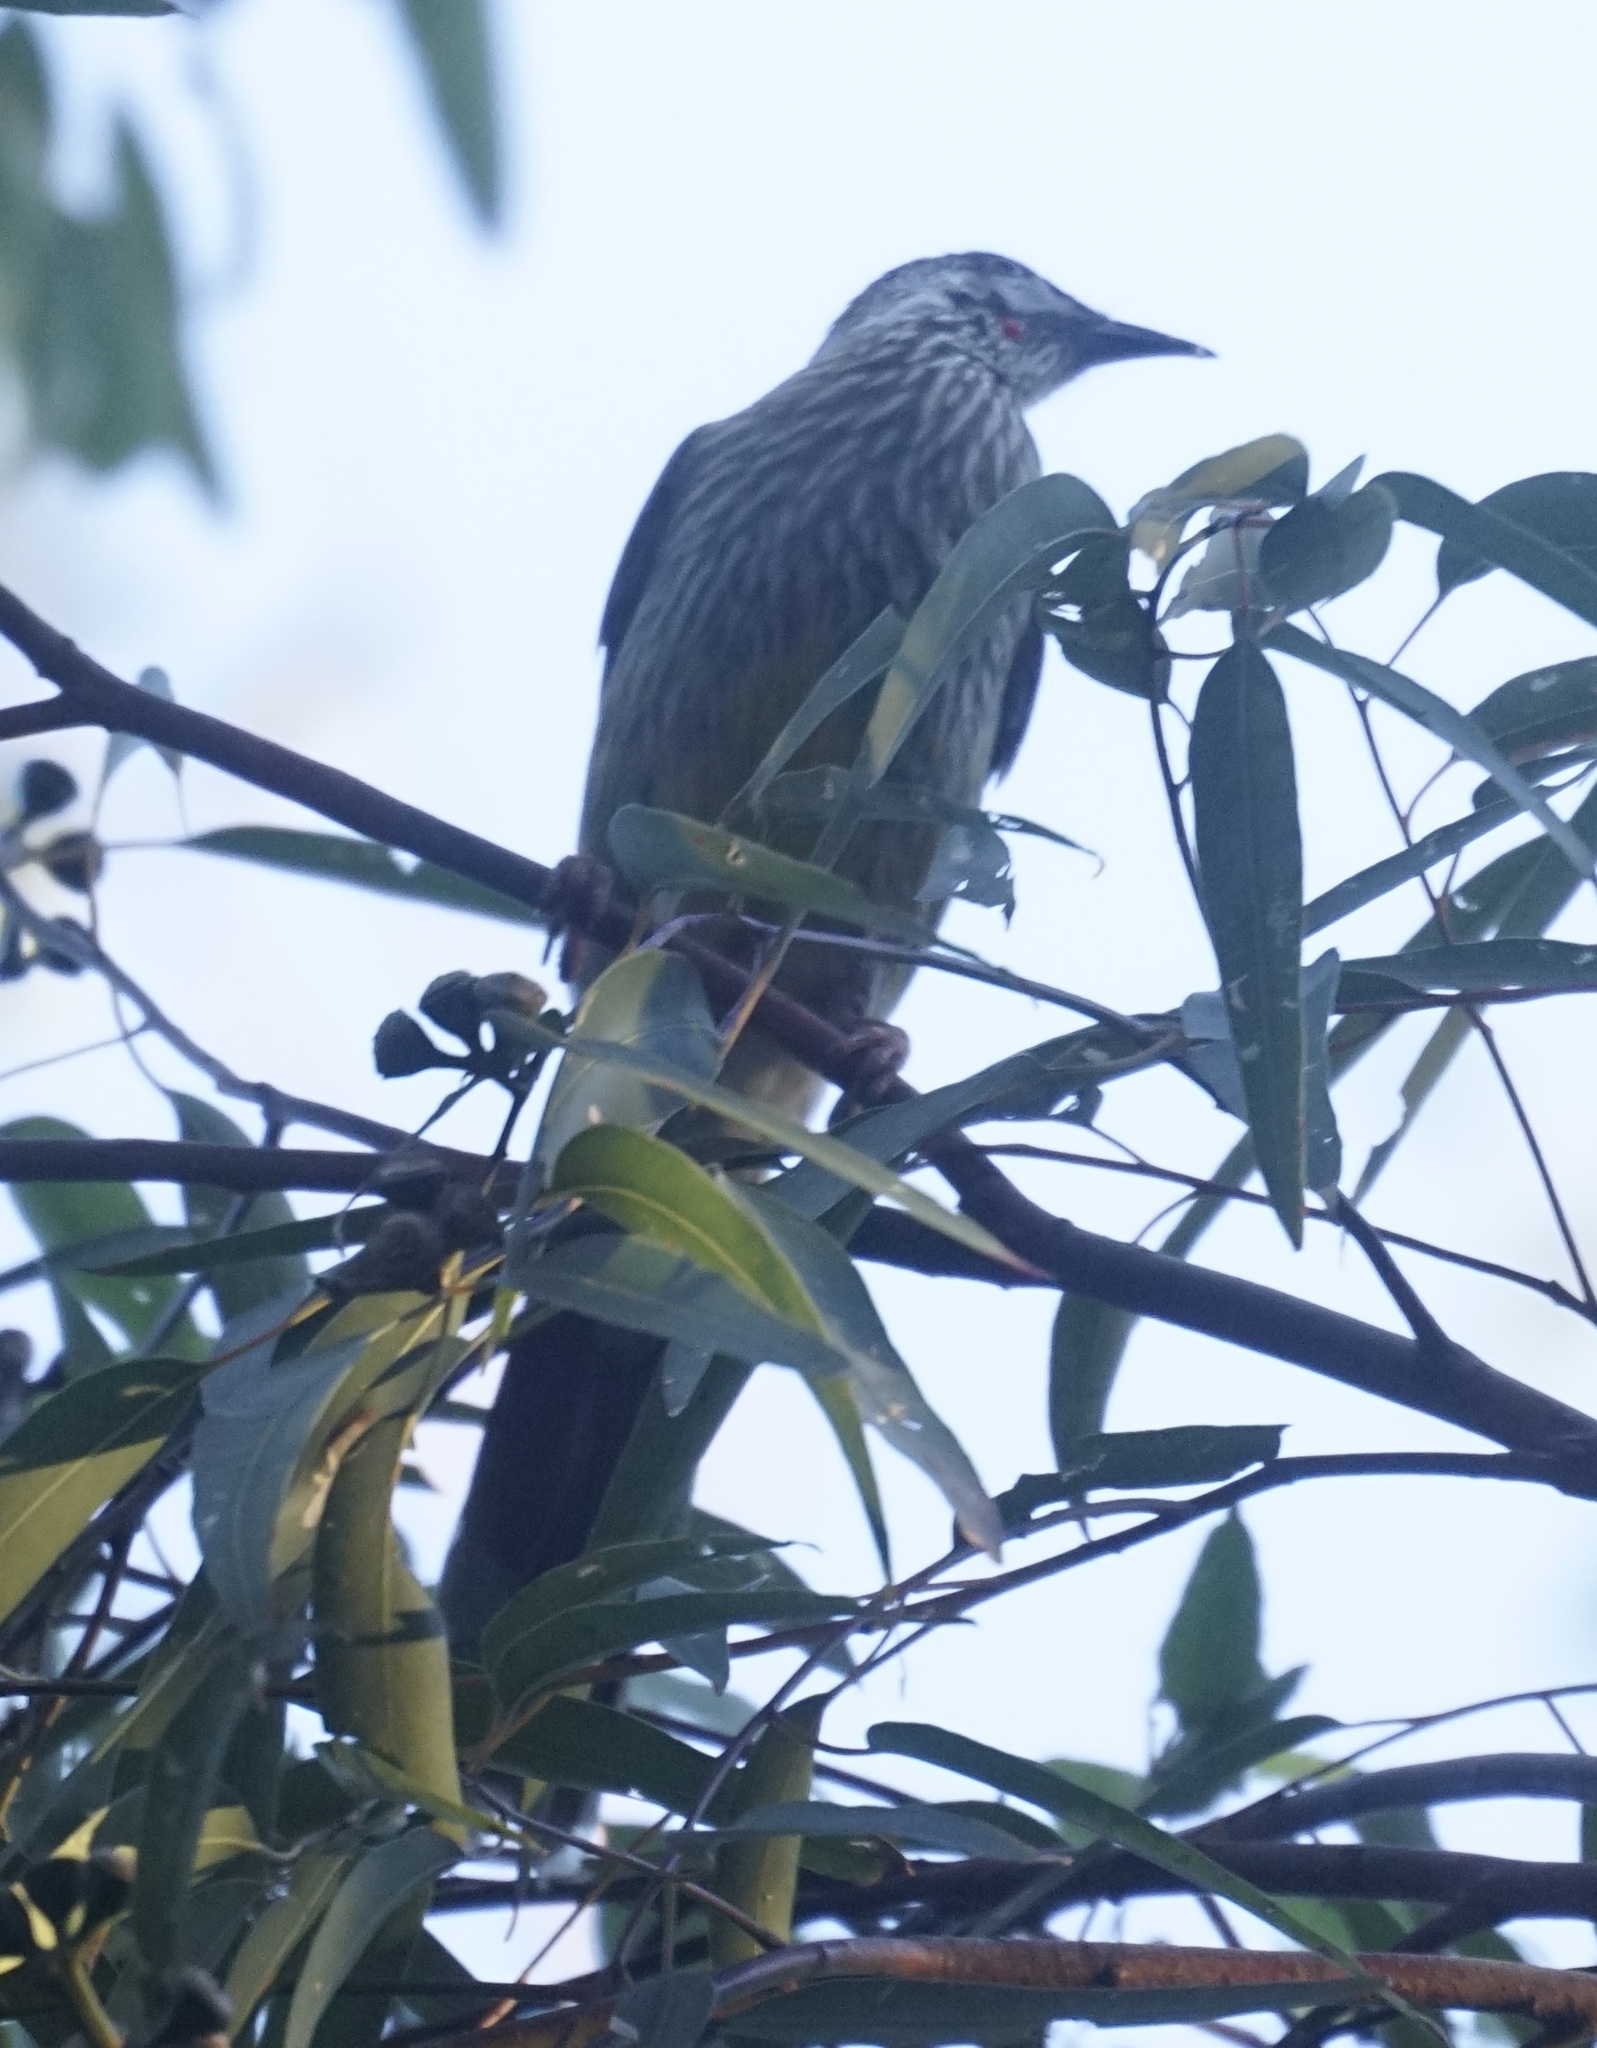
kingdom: Animalia
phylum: Chordata
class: Aves
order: Passeriformes
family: Meliphagidae
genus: Anthochaera
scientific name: Anthochaera carunculata
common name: Red wattlebird
